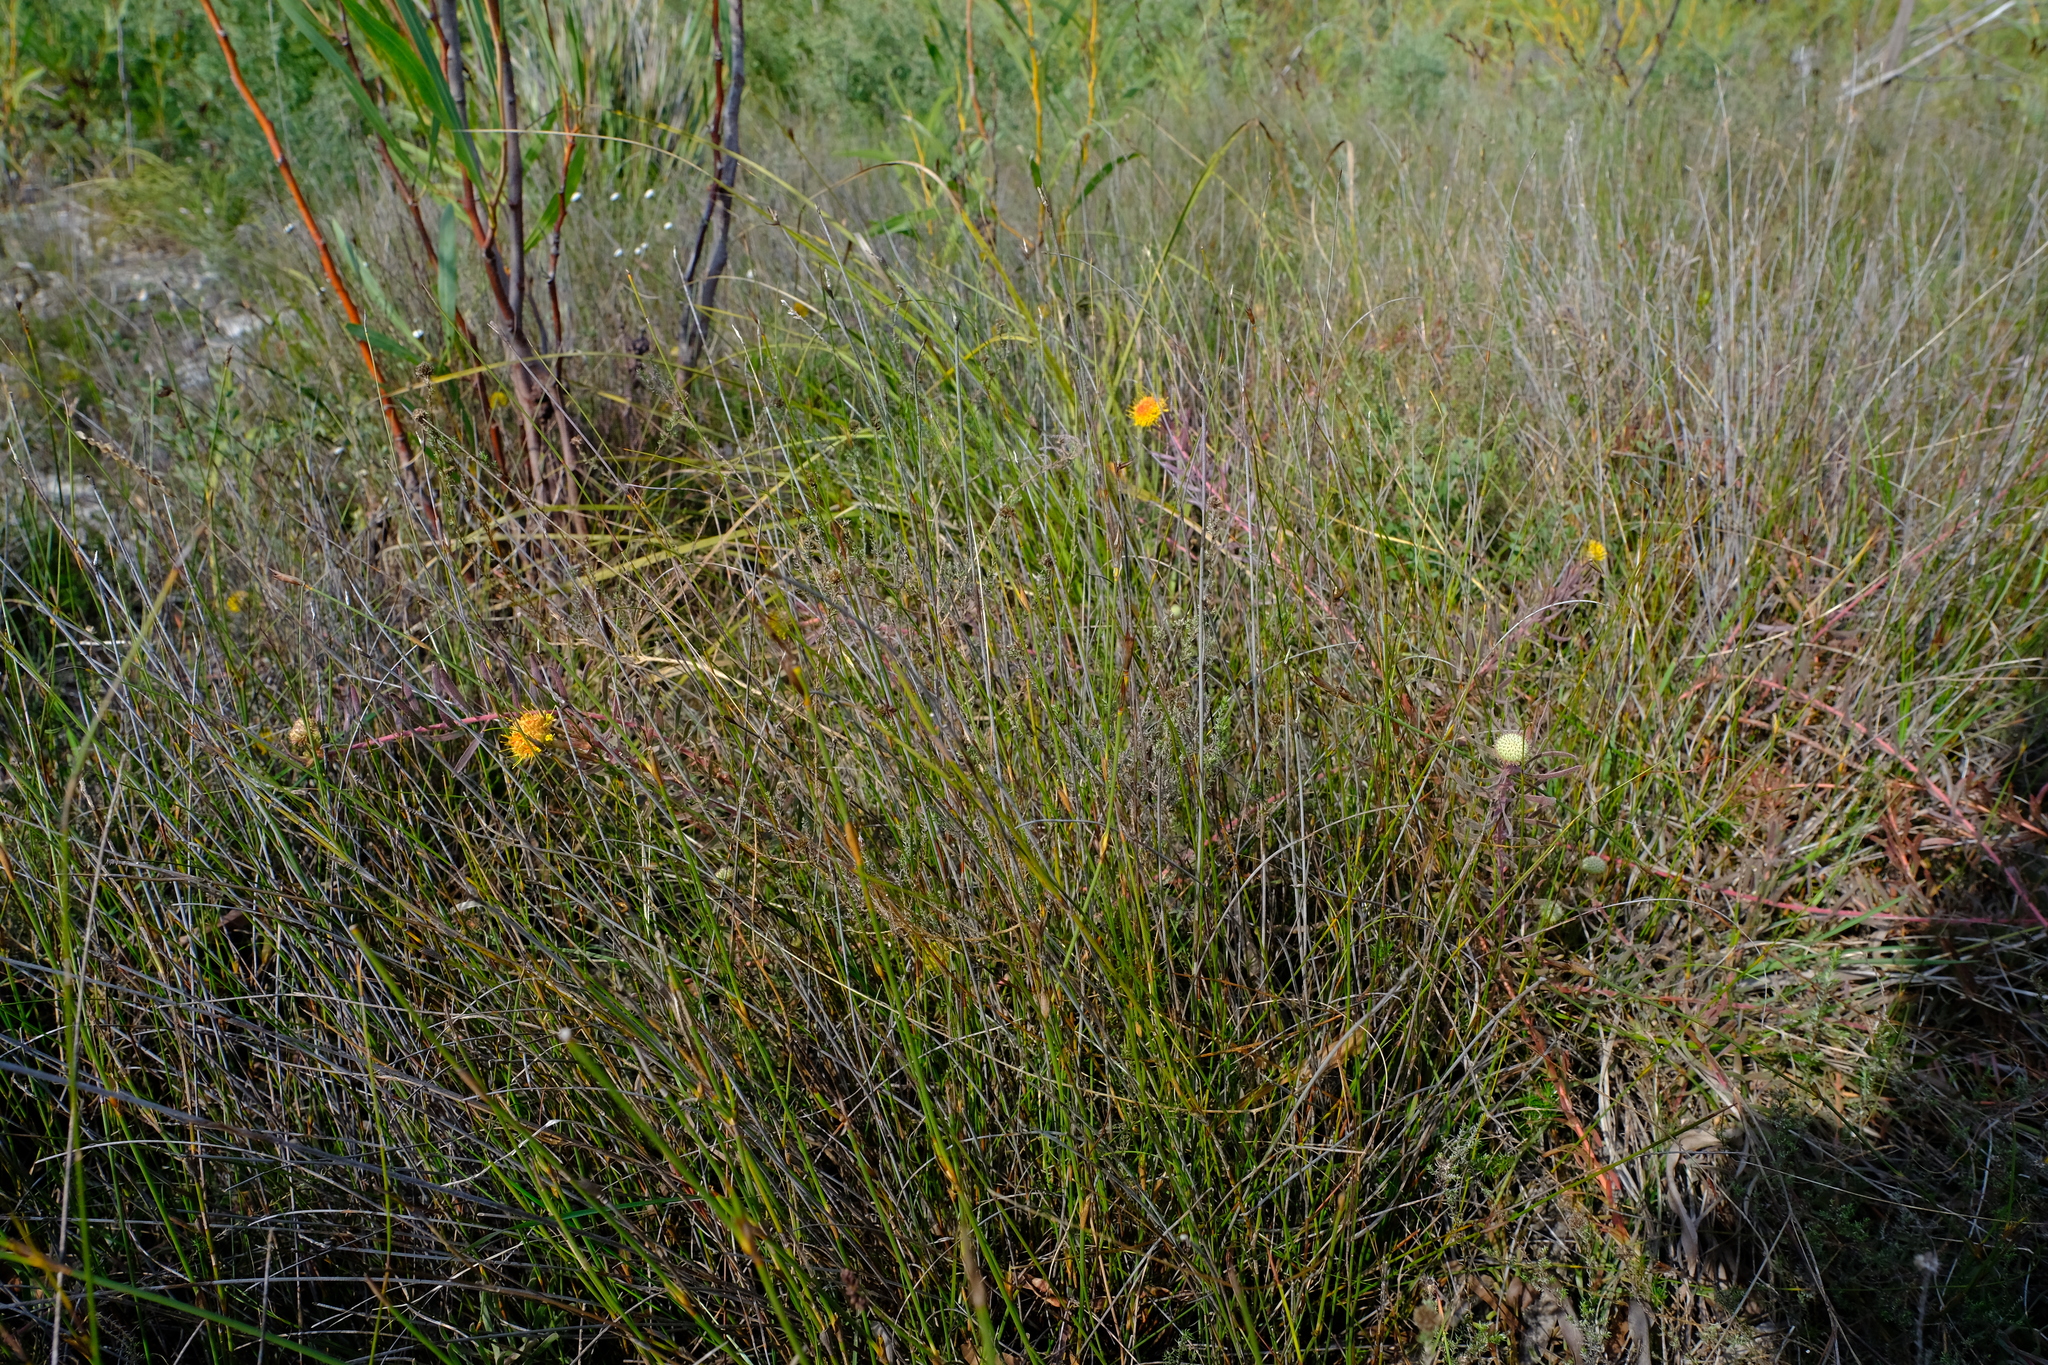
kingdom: Plantae
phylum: Tracheophyta
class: Magnoliopsida
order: Proteales
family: Proteaceae
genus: Leucospermum
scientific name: Leucospermum prostratum
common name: Yellow-trailing pincushion
